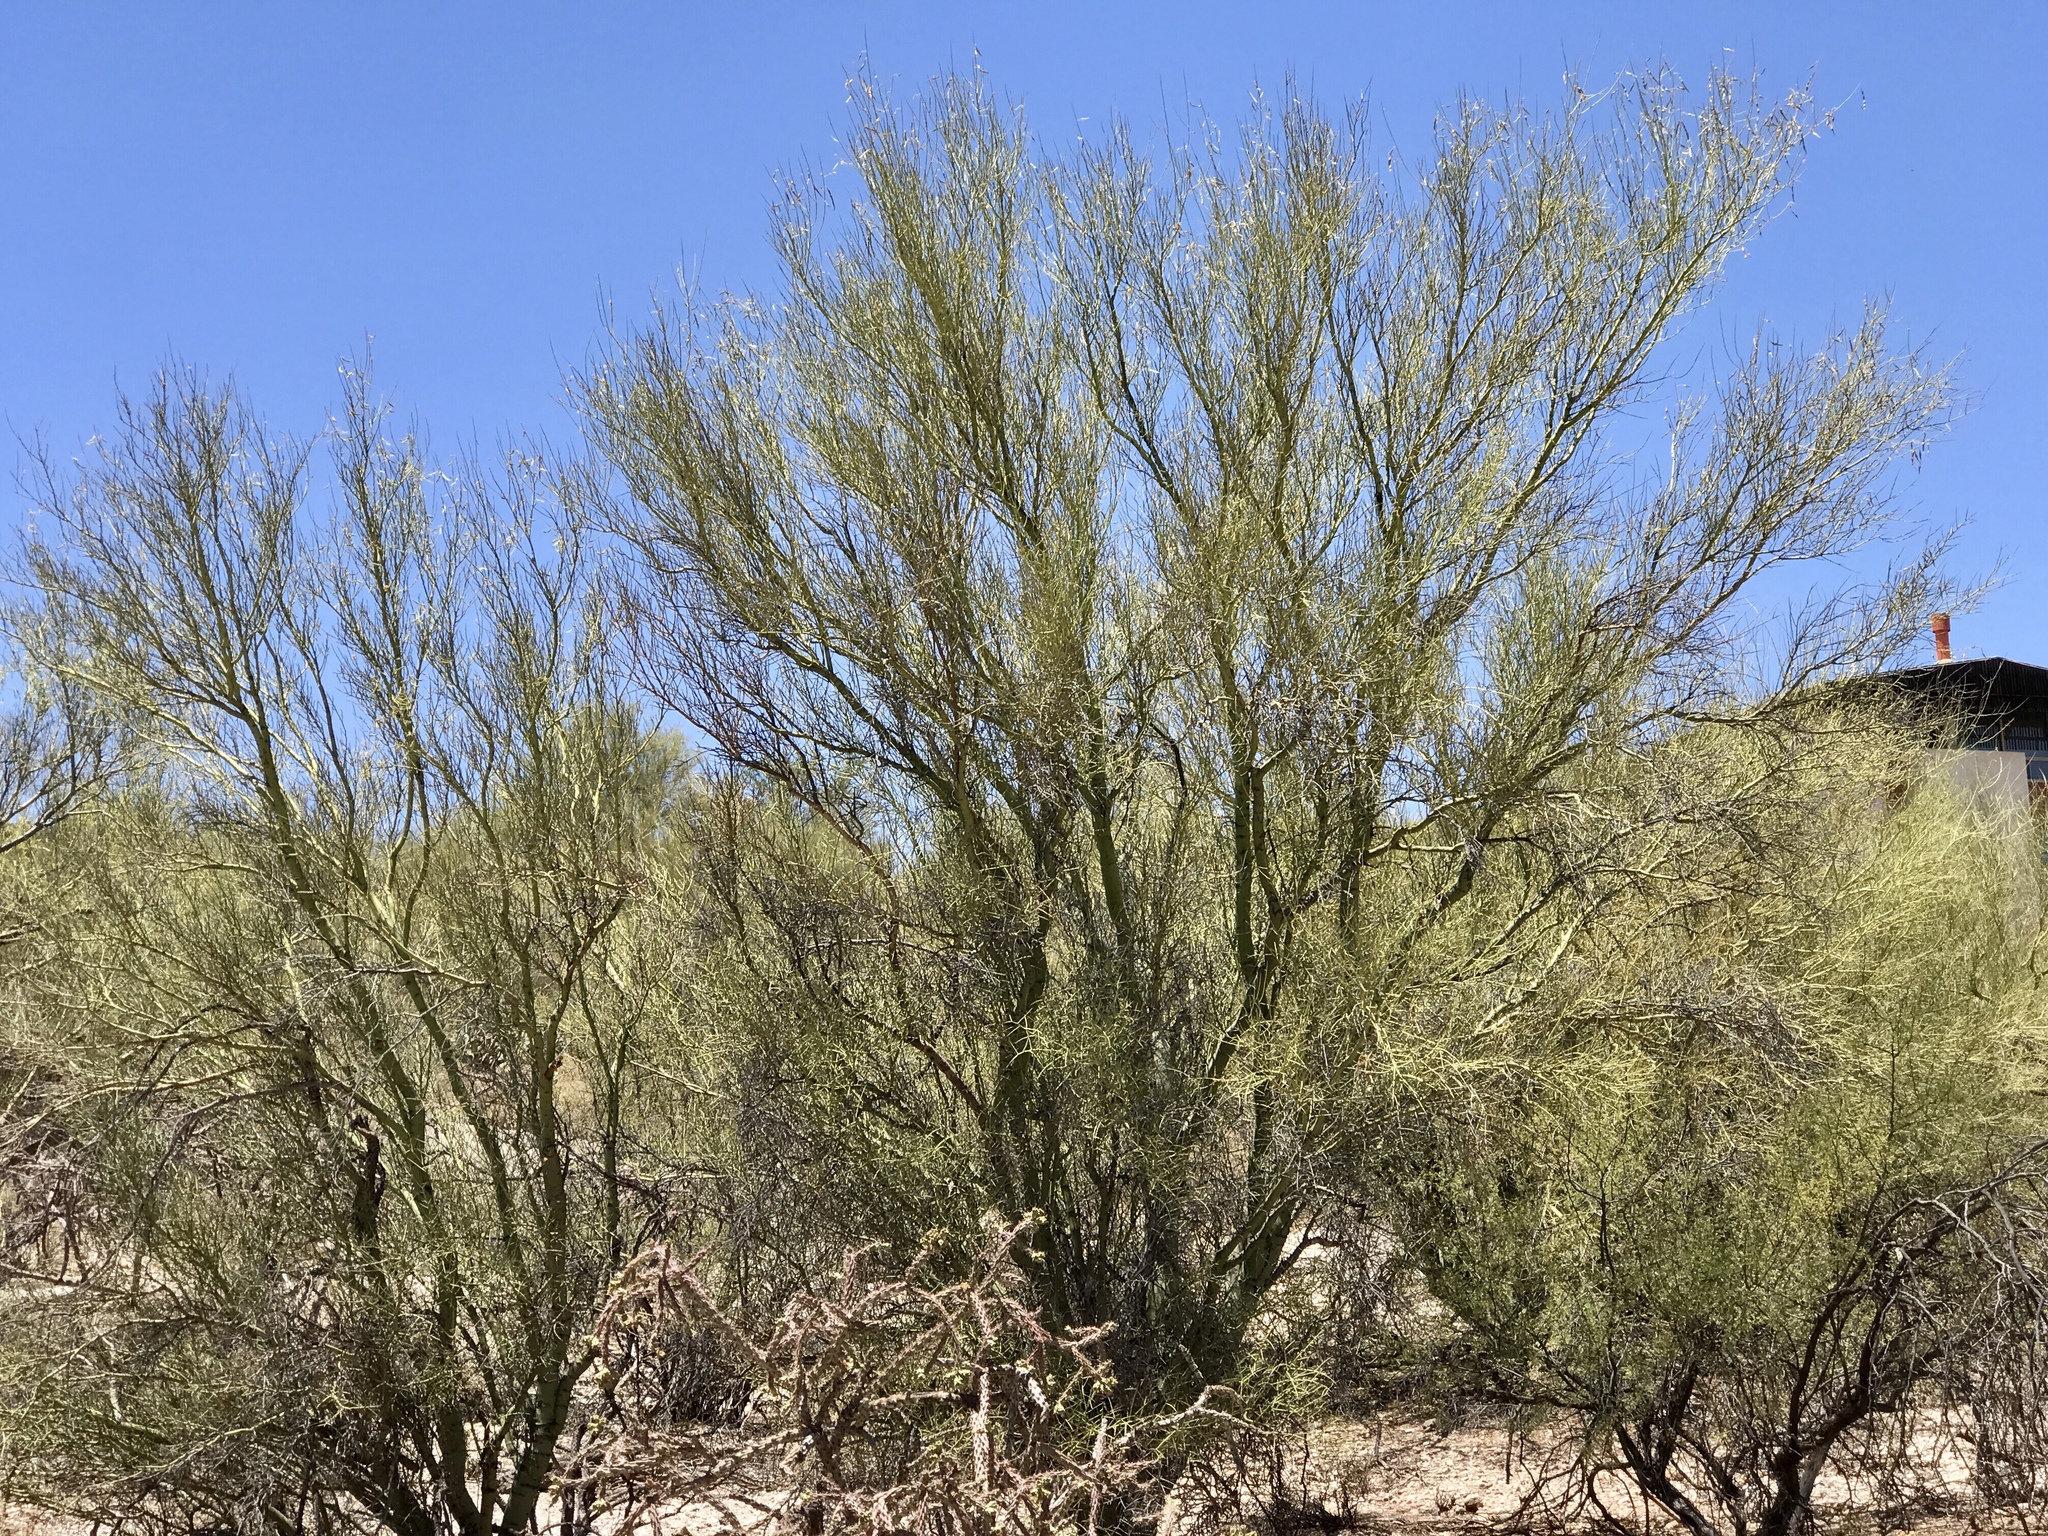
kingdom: Plantae
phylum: Tracheophyta
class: Magnoliopsida
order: Fabales
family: Fabaceae
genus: Parkinsonia
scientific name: Parkinsonia microphylla
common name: Yellow paloverde
